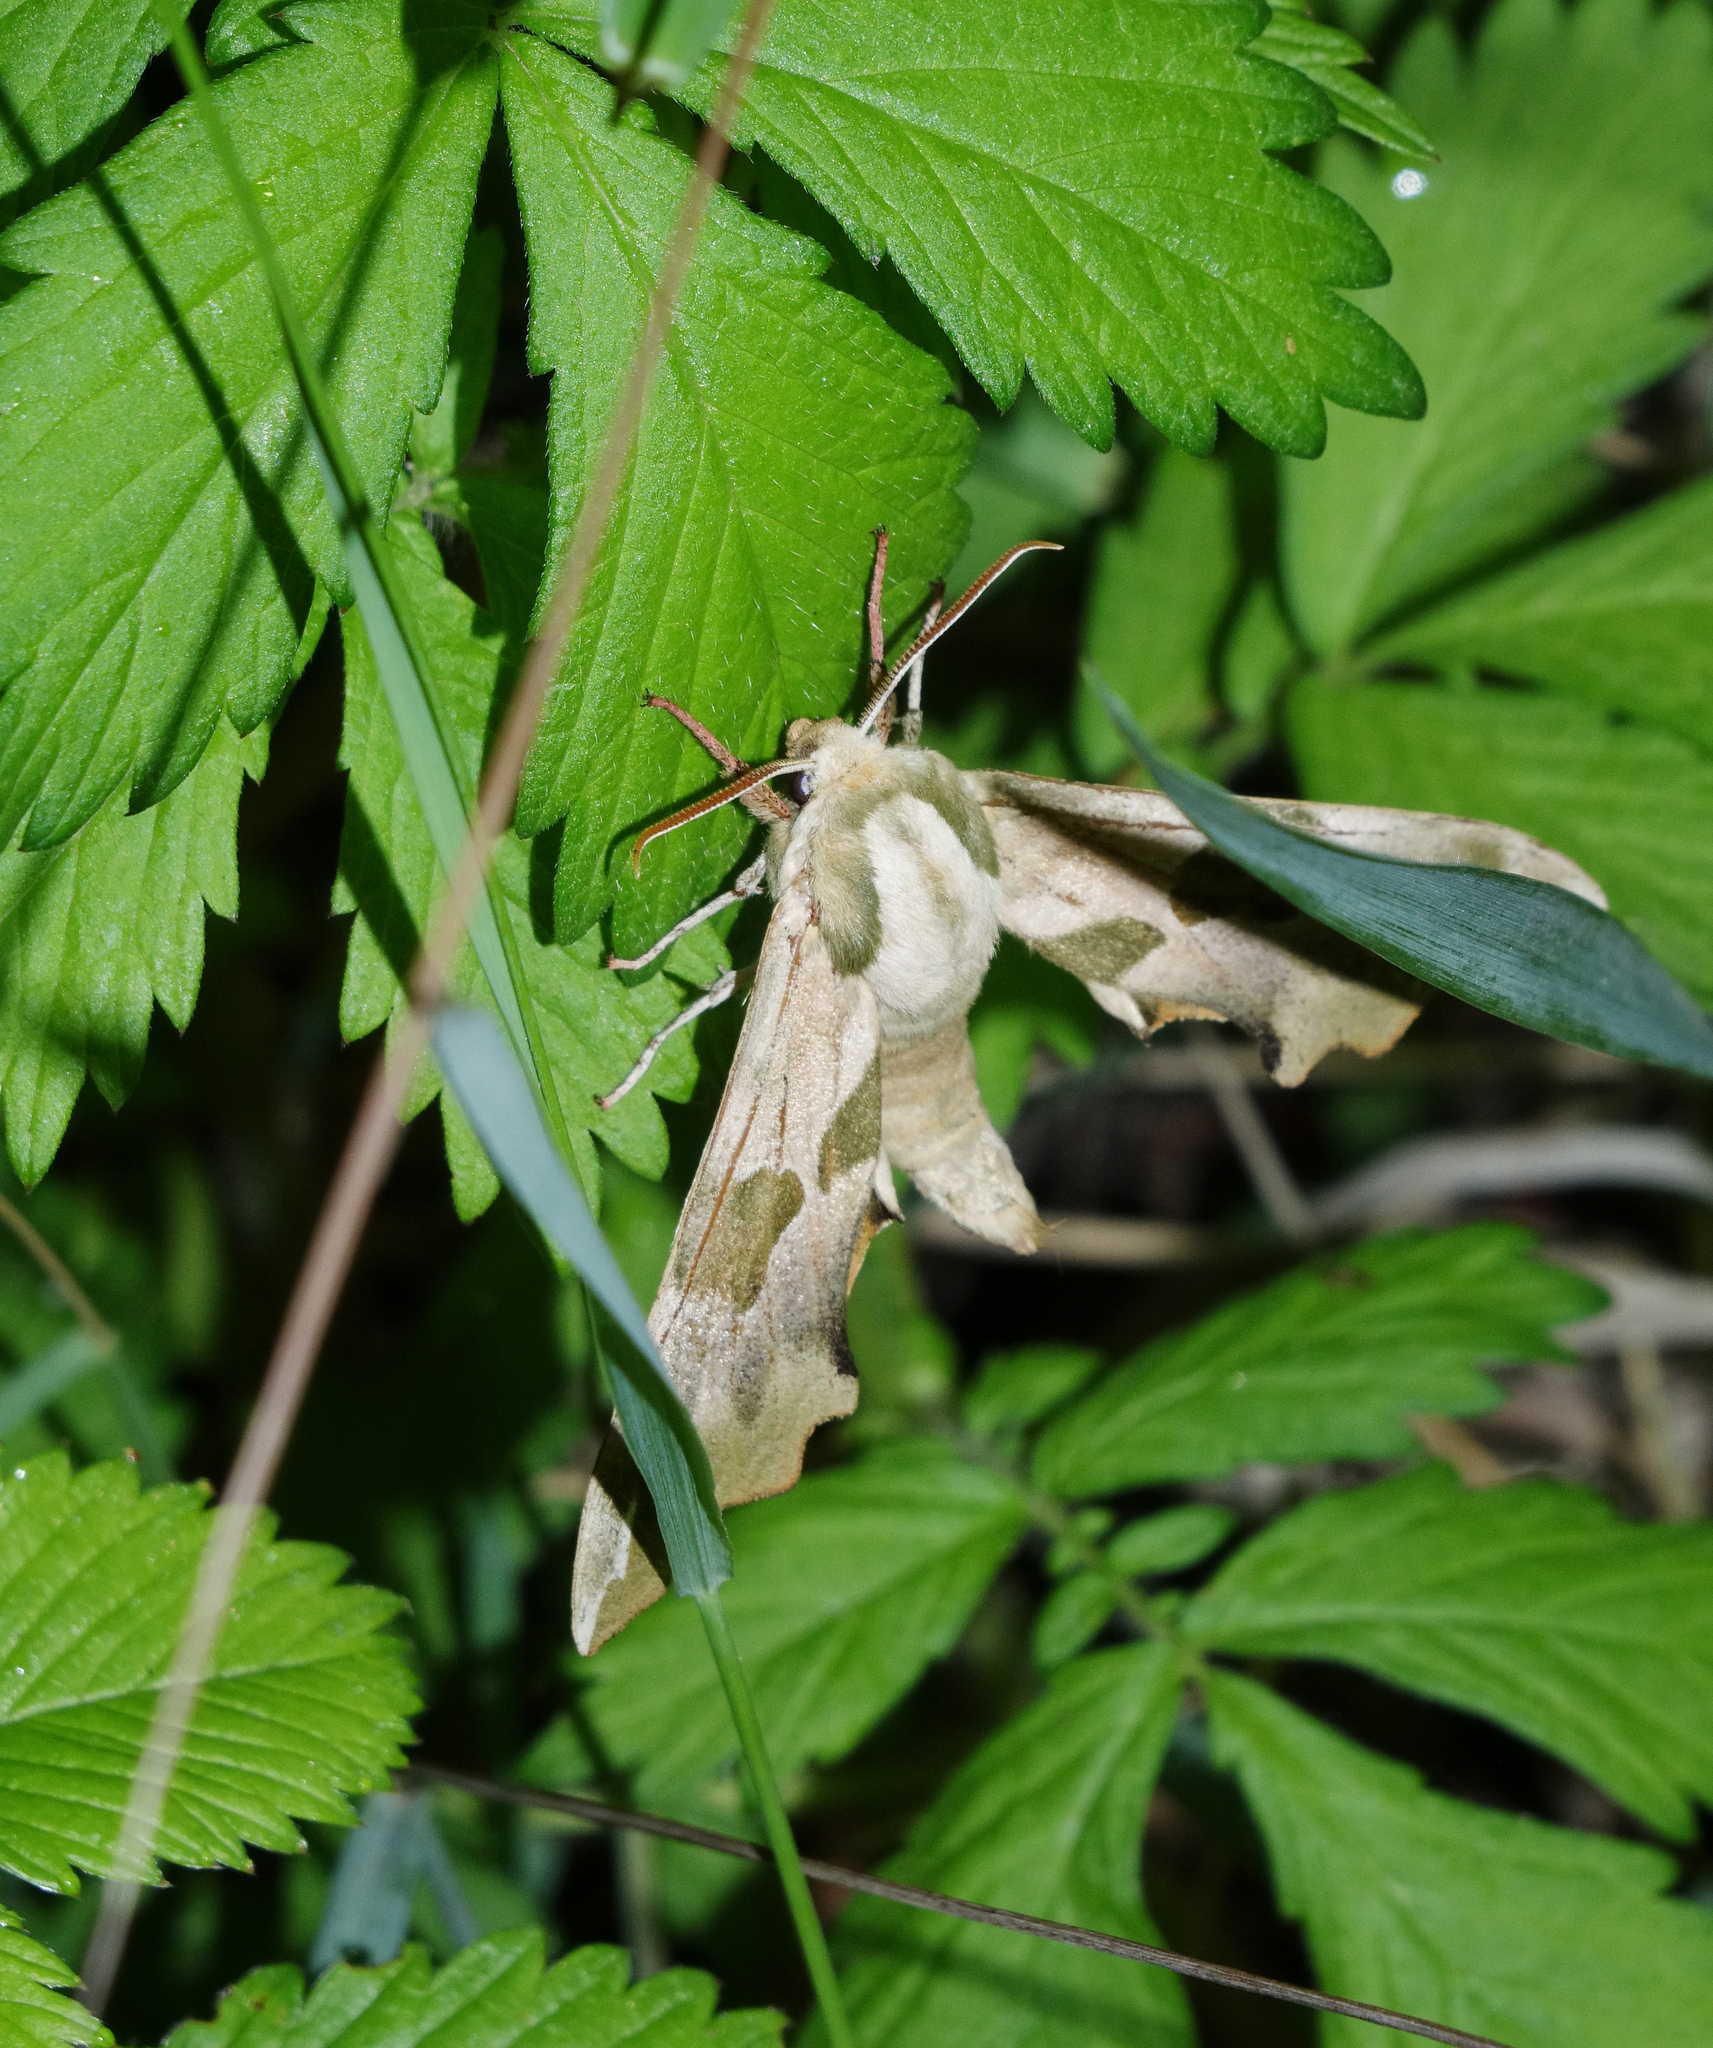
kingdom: Animalia
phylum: Arthropoda
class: Insecta
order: Lepidoptera
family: Sphingidae
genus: Mimas
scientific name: Mimas tiliae
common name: Lime hawk-moth
